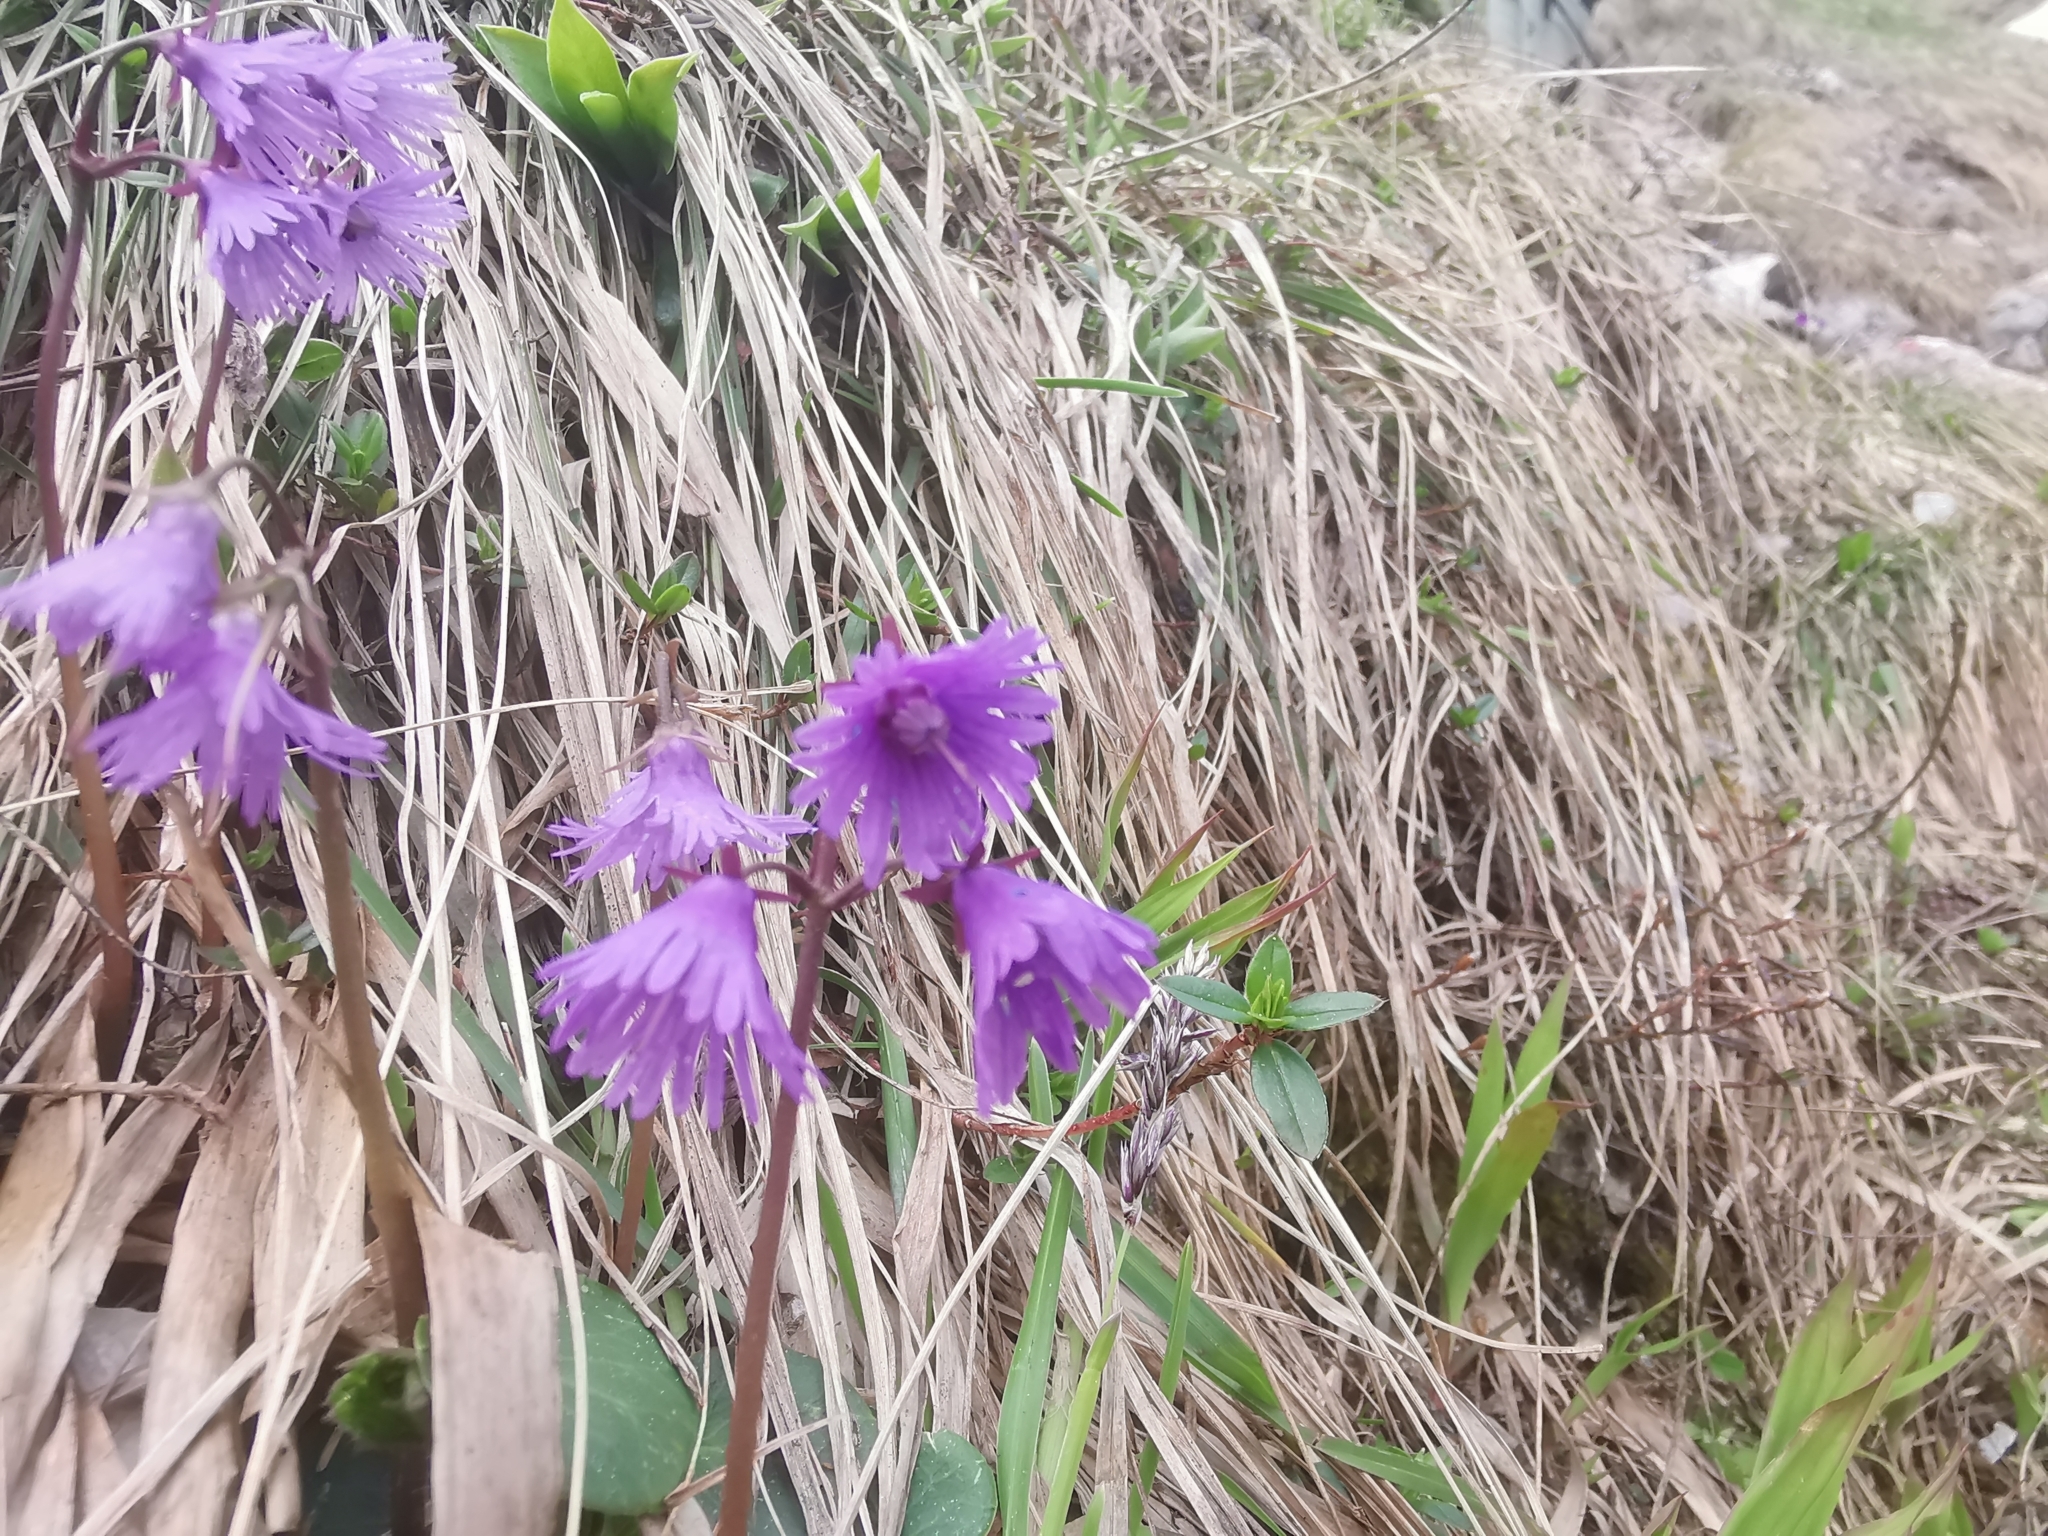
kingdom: Plantae
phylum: Tracheophyta
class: Magnoliopsida
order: Ericales
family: Primulaceae
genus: Soldanella
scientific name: Soldanella alpina
